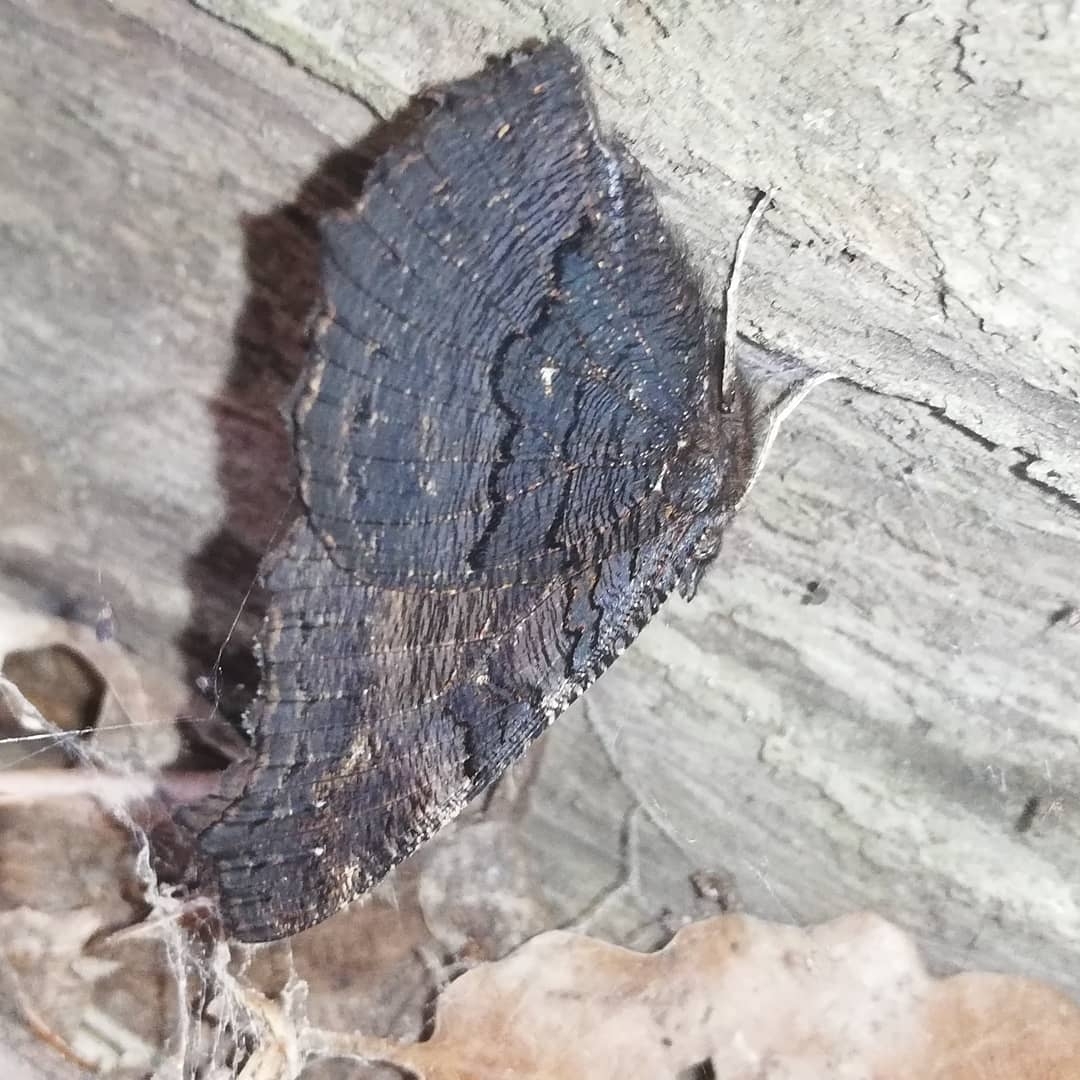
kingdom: Animalia
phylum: Arthropoda
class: Insecta
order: Lepidoptera
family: Nymphalidae
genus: Aglais
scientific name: Aglais io
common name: Peacock
